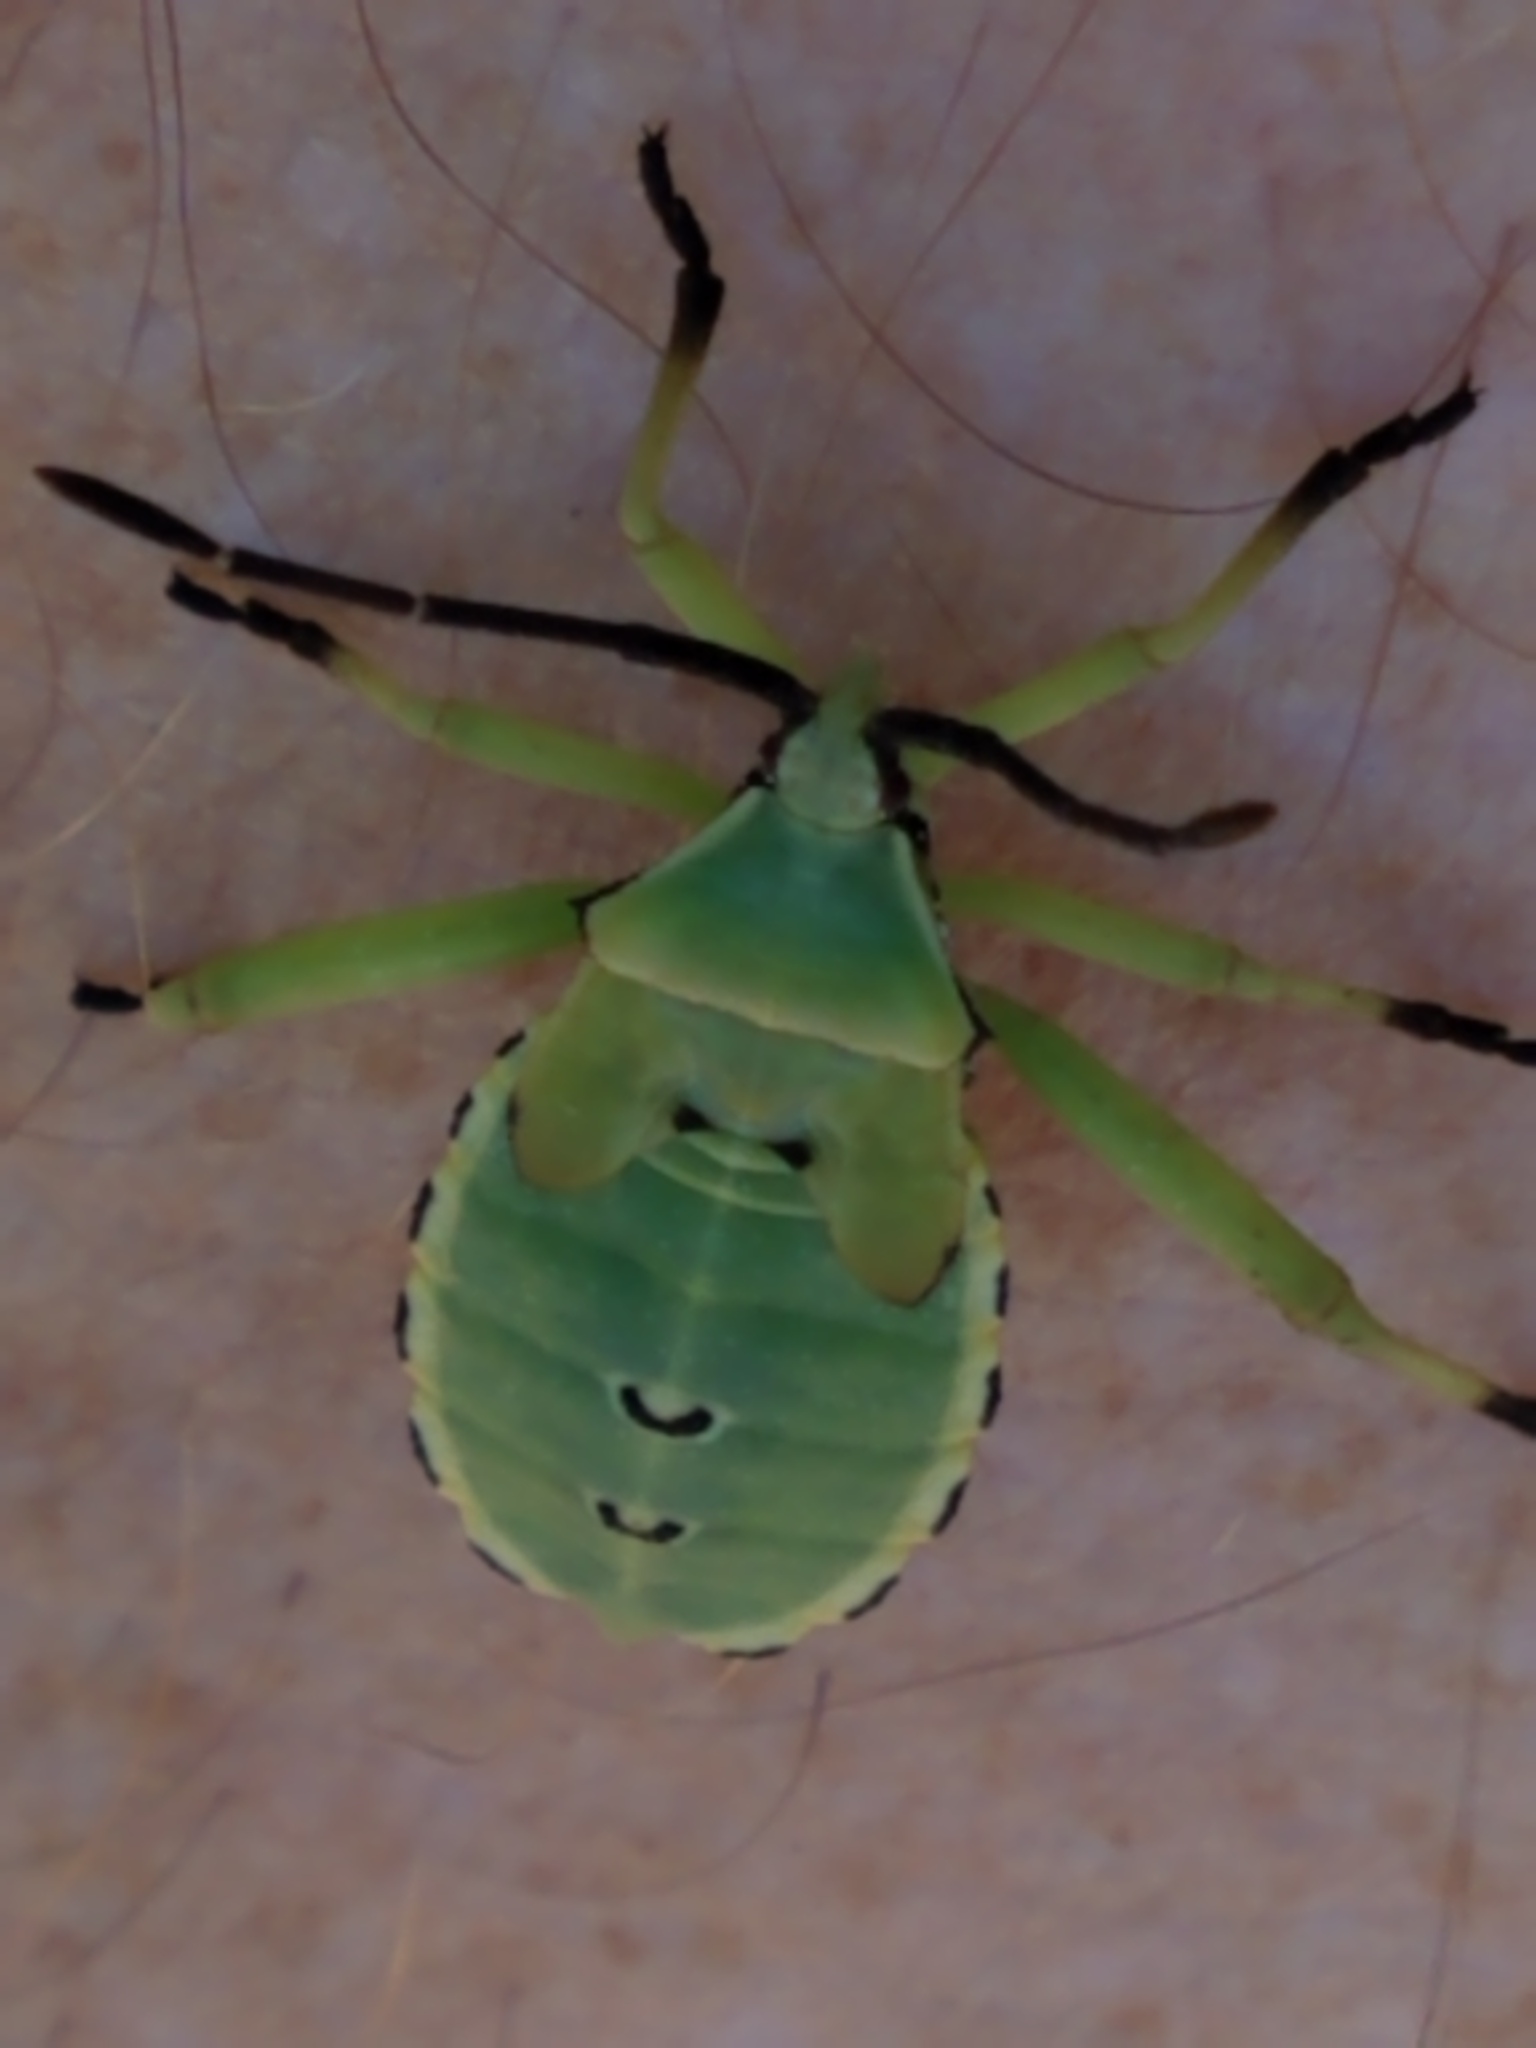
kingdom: Animalia
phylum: Arthropoda
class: Insecta
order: Hemiptera
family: Coreidae
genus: Mozena
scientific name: Mozena obtusa
